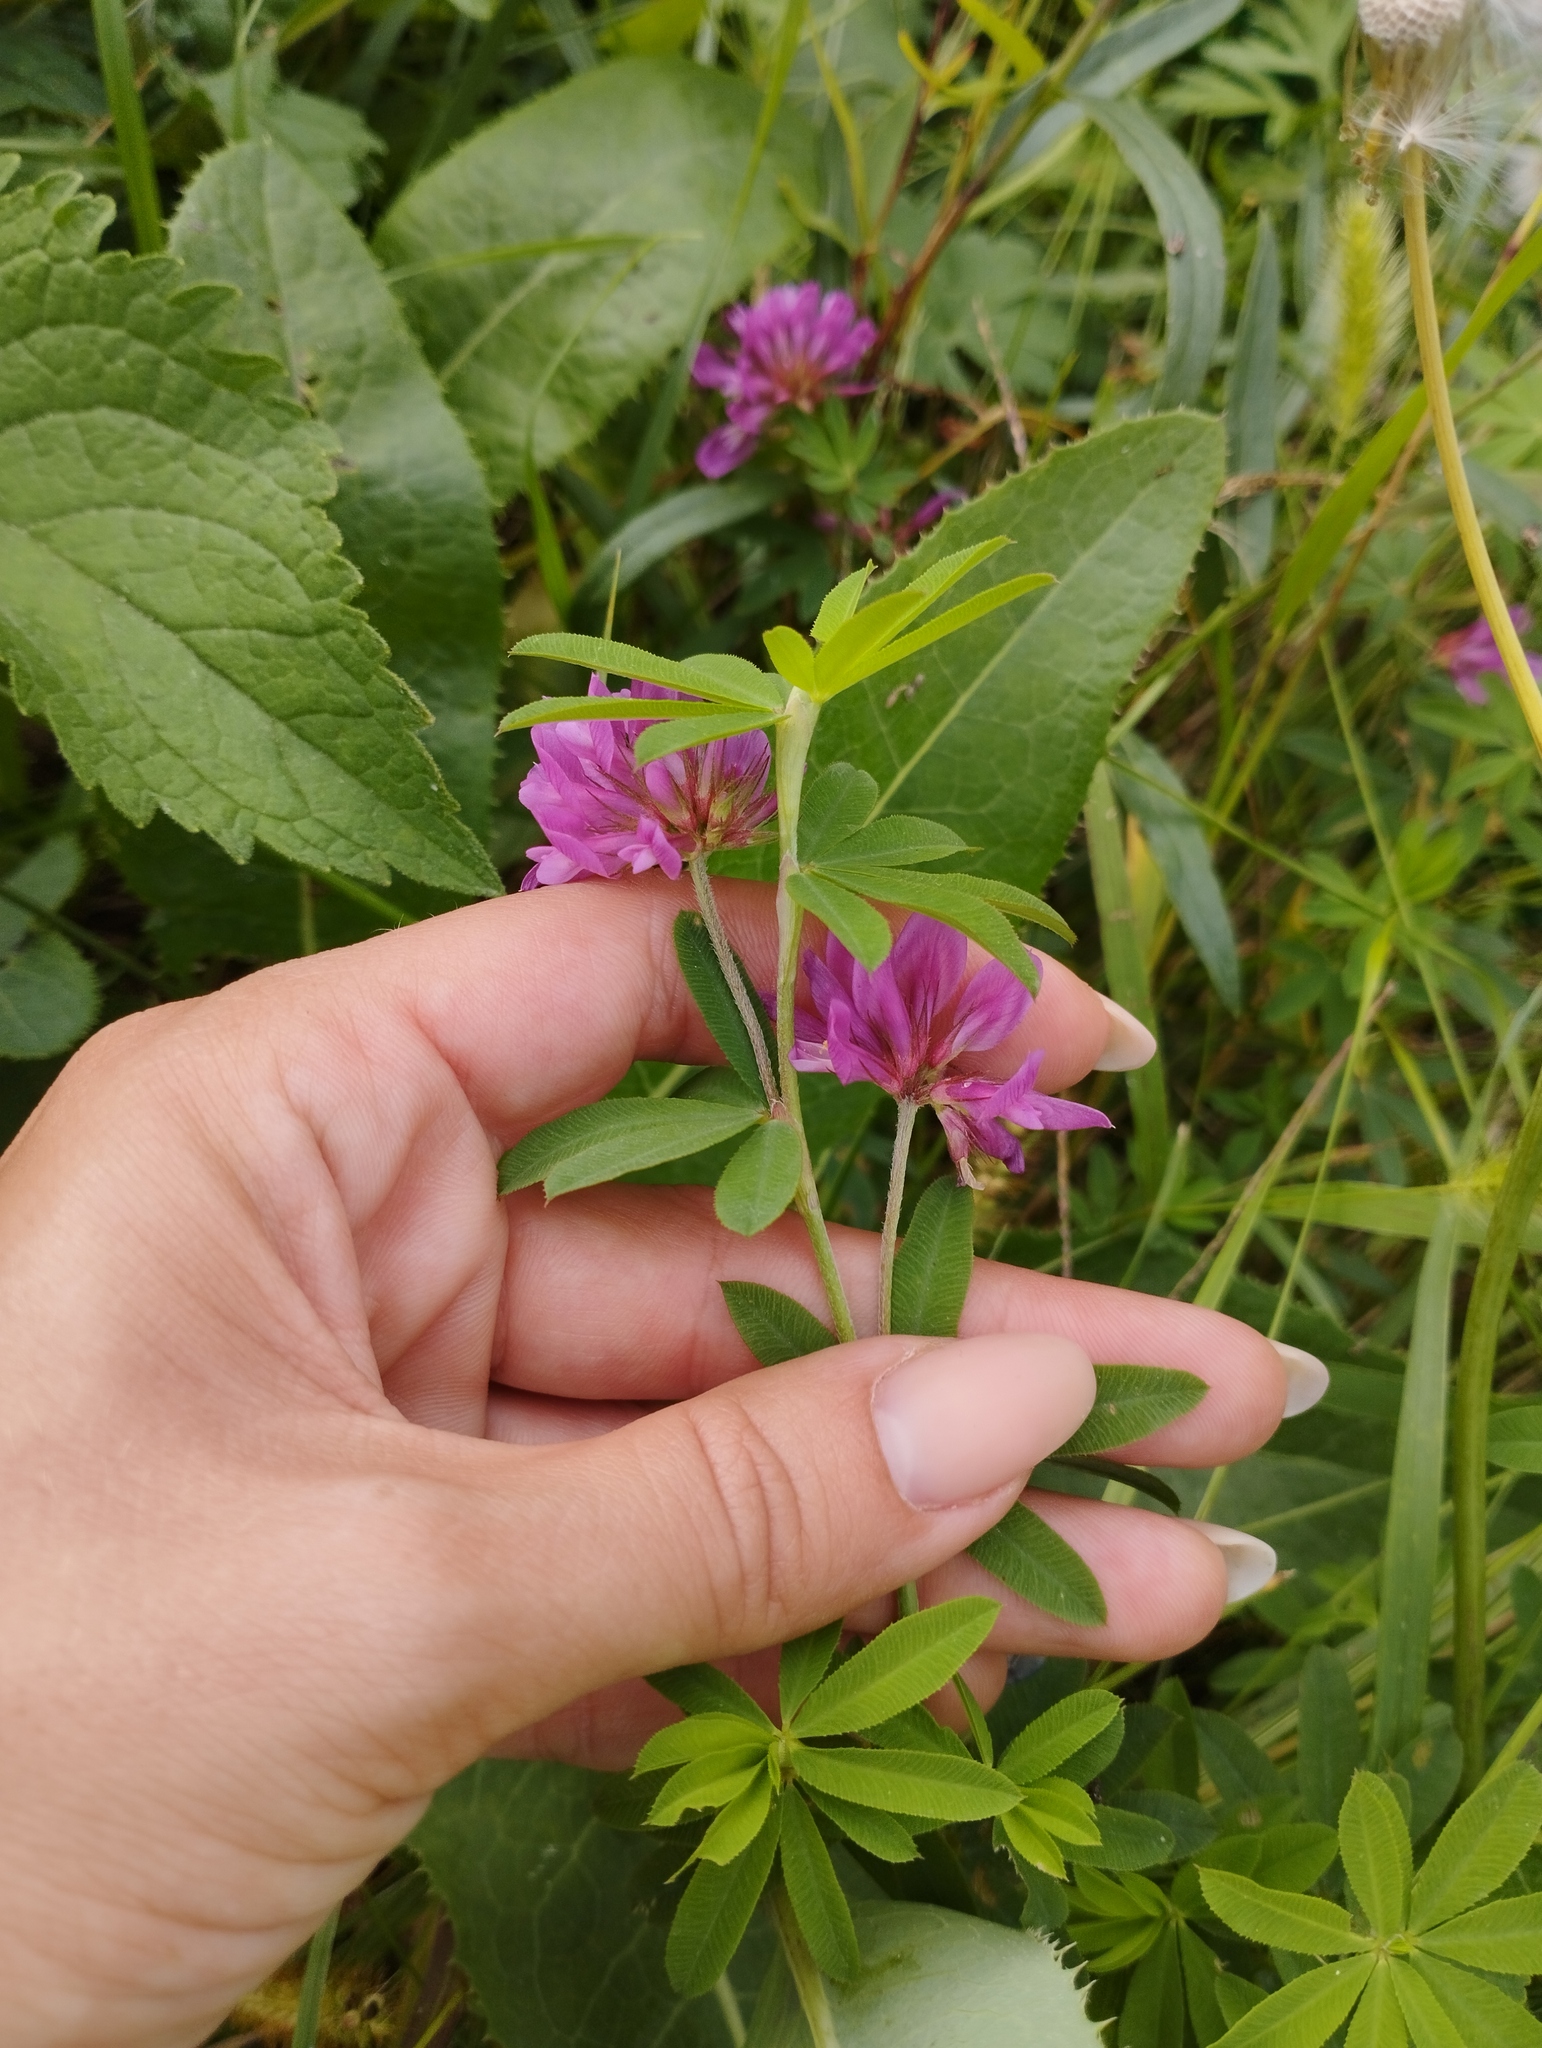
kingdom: Plantae
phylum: Tracheophyta
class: Magnoliopsida
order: Fabales
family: Fabaceae
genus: Trifolium
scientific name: Trifolium lupinaster
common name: Lupine clover
